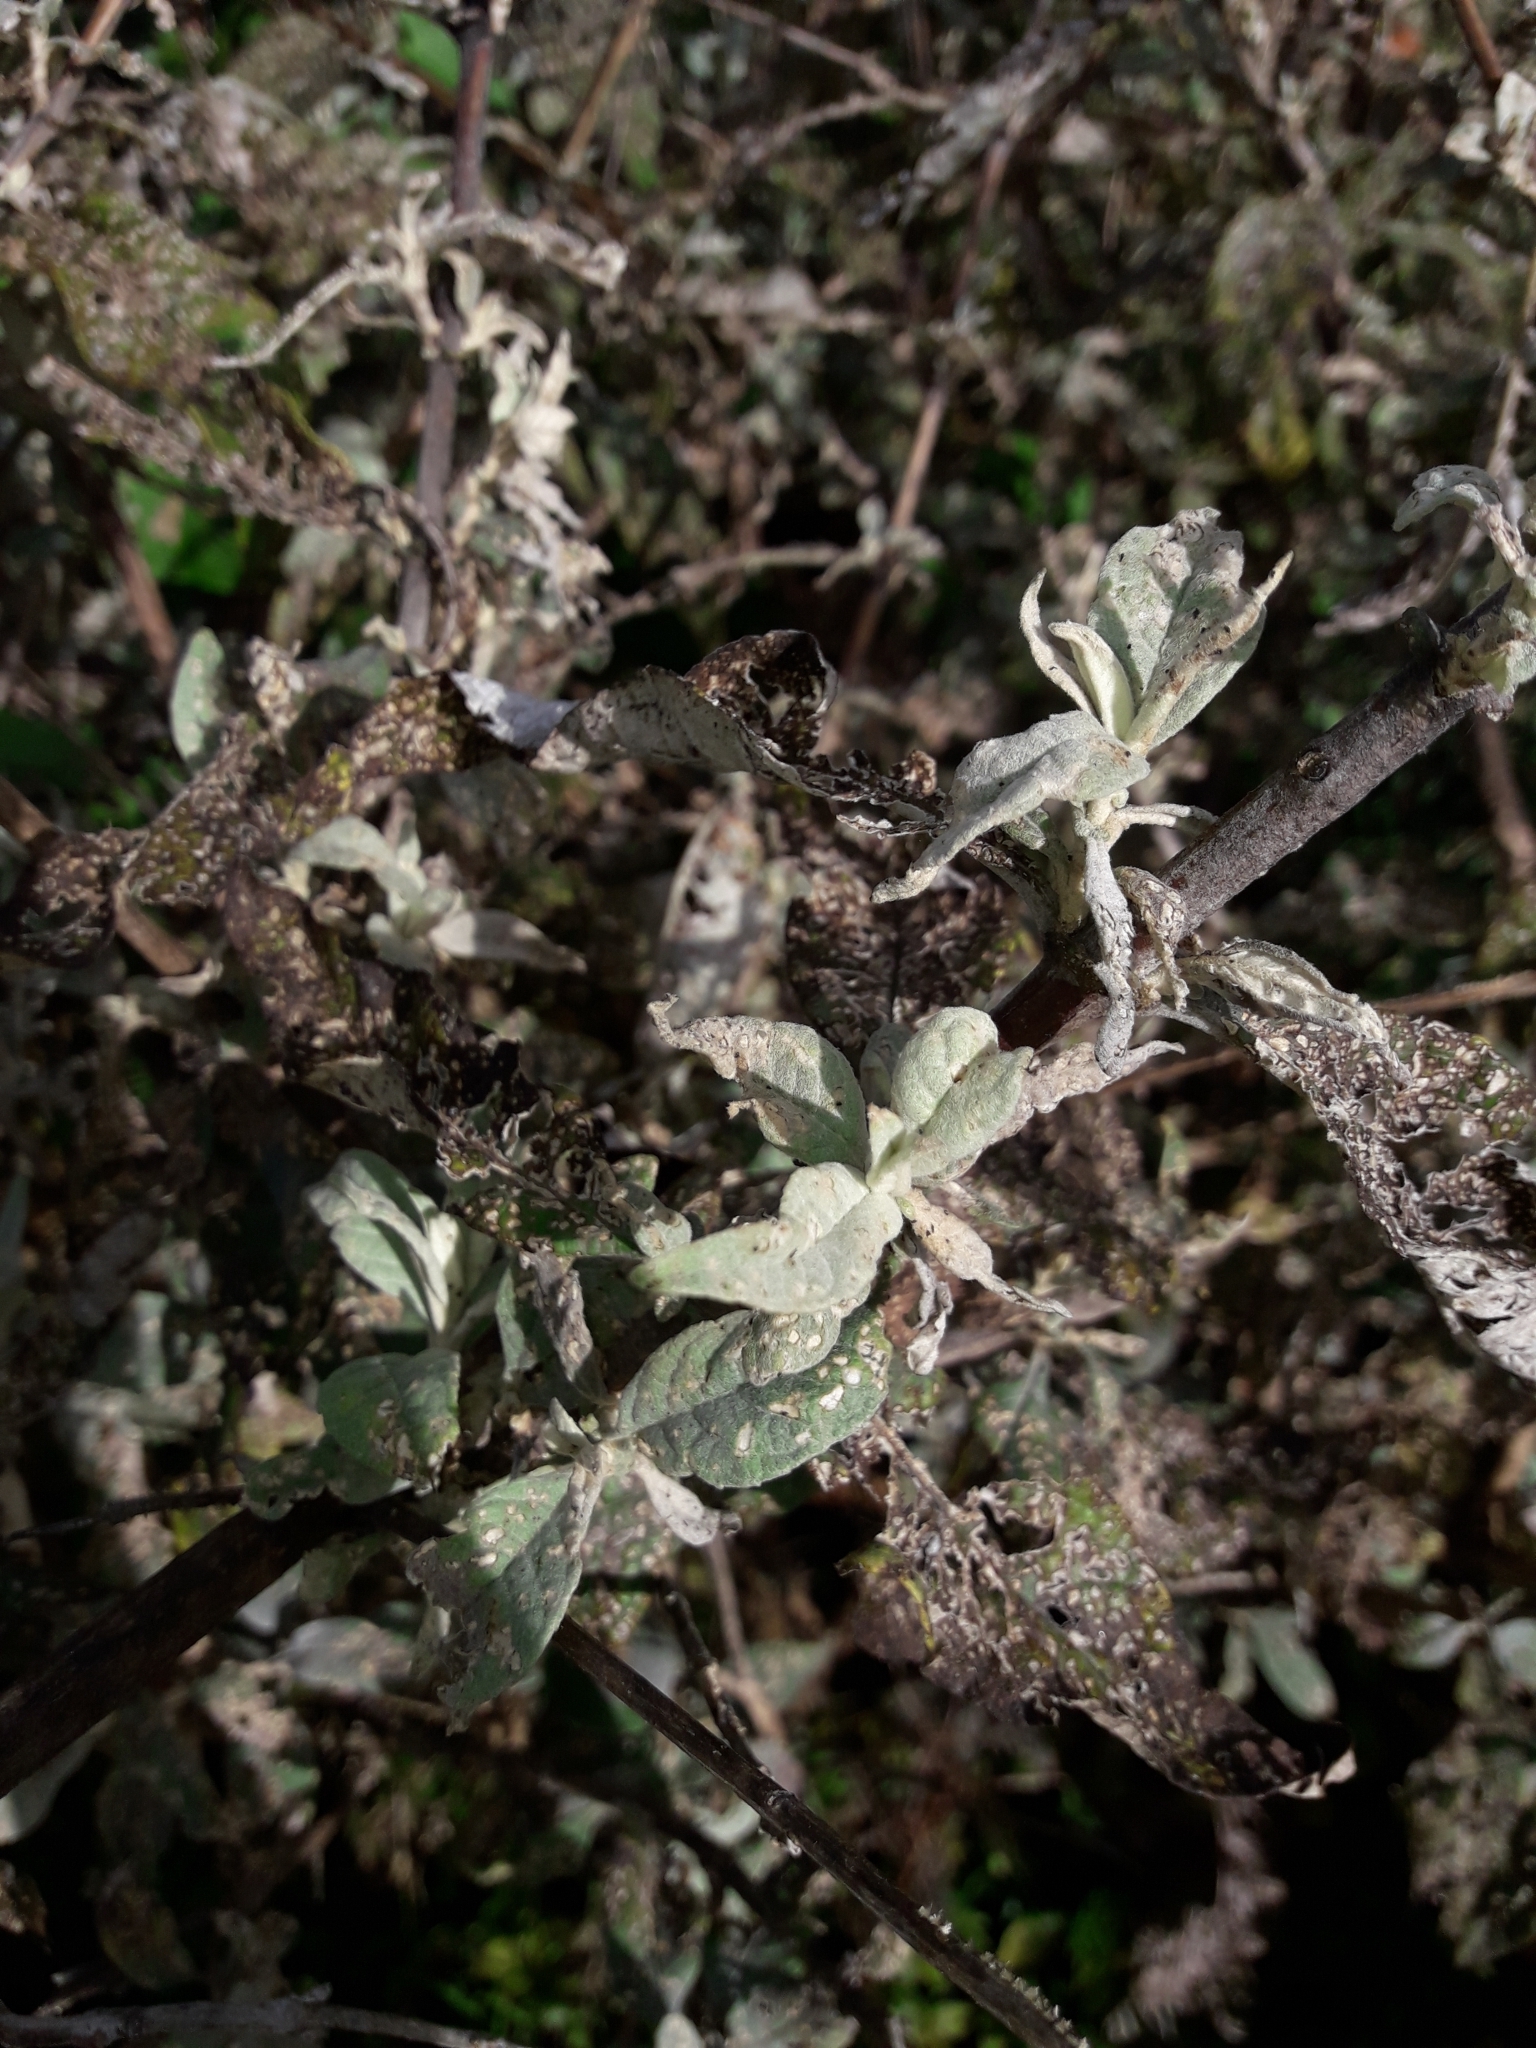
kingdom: Animalia
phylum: Arthropoda
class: Insecta
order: Coleoptera
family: Curculionidae
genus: Cleopus
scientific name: Cleopus japonicus
